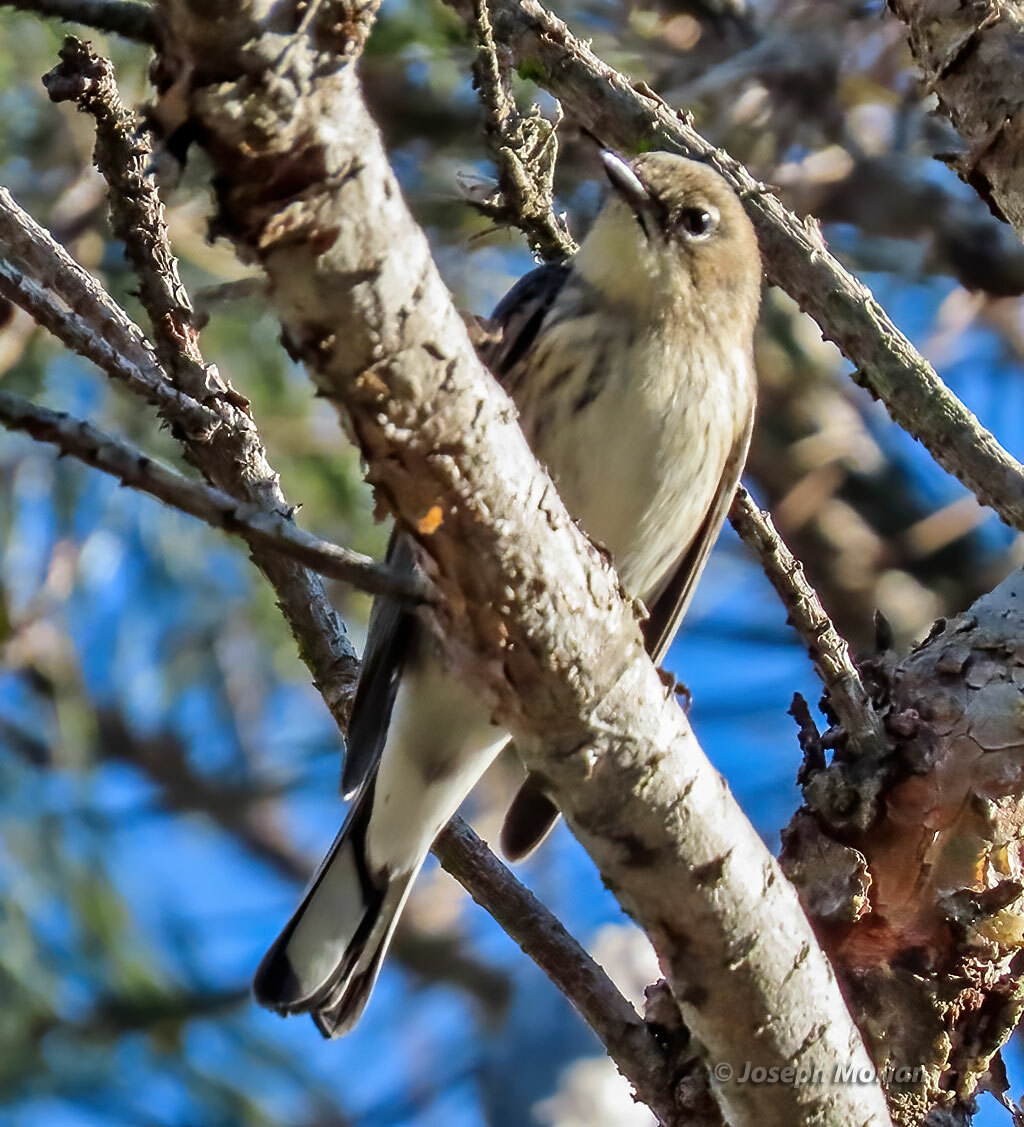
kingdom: Animalia
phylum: Chordata
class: Aves
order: Passeriformes
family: Parulidae
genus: Setophaga
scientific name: Setophaga coronata
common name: Myrtle warbler
